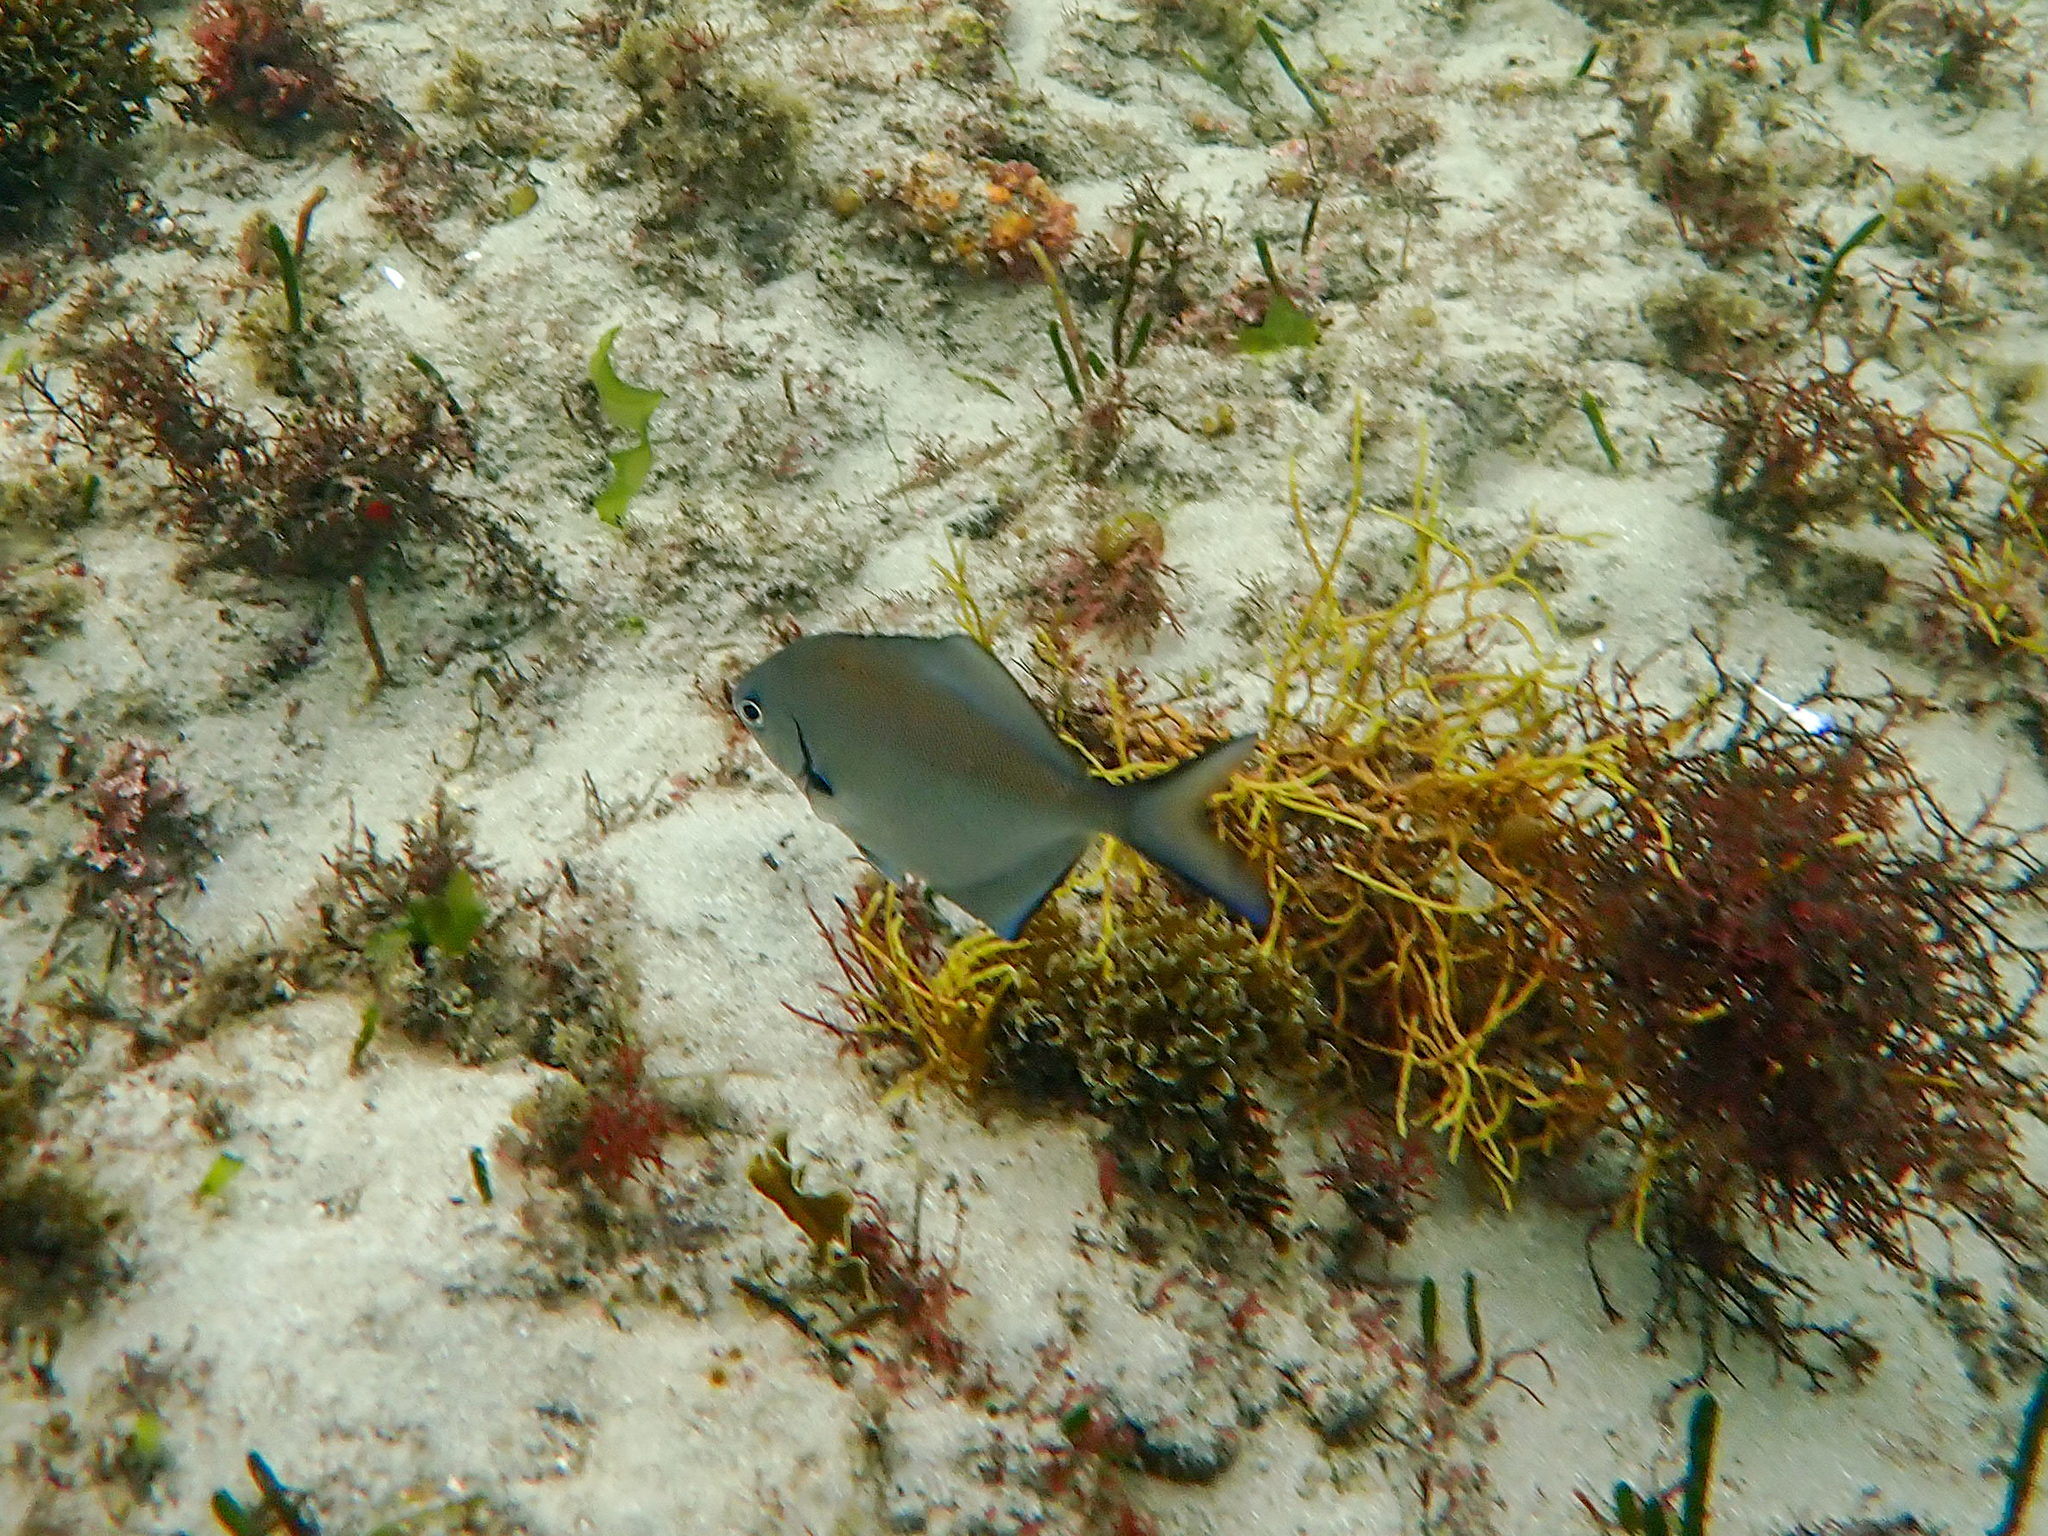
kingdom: Animalia
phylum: Chordata
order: Perciformes
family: Kyphosidae
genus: Scorpis
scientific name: Scorpis lineolata
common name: Sweep
